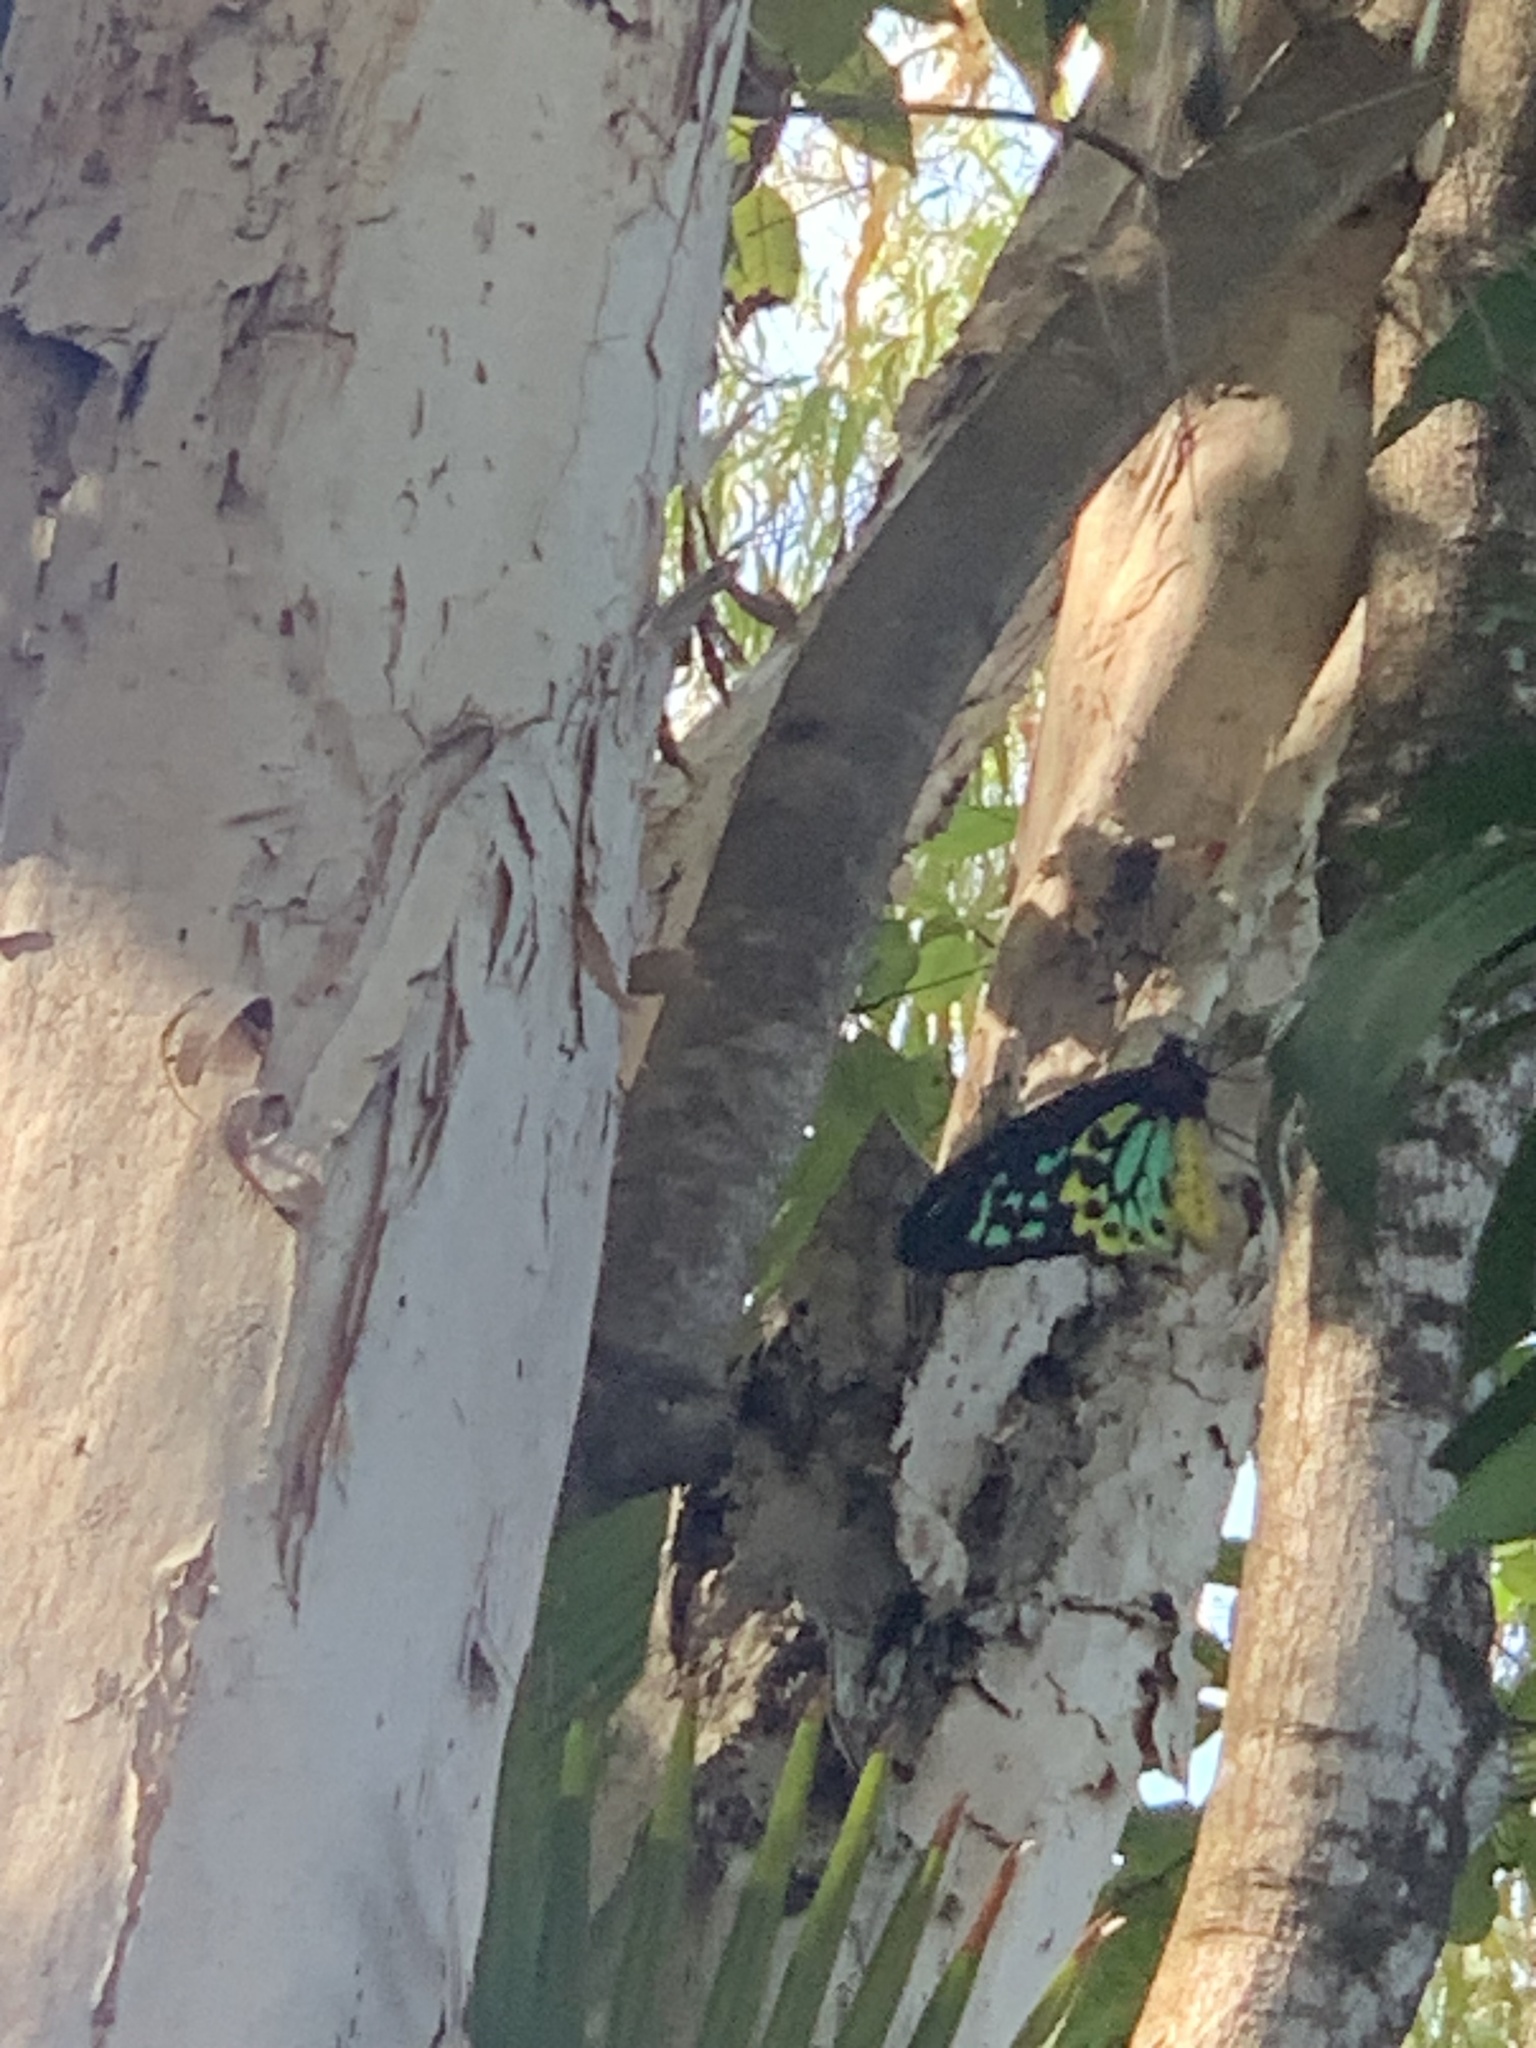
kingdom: Animalia
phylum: Arthropoda
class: Insecta
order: Lepidoptera
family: Papilionidae
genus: Ornithoptera
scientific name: Ornithoptera euphorion
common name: Cairns birdwing
